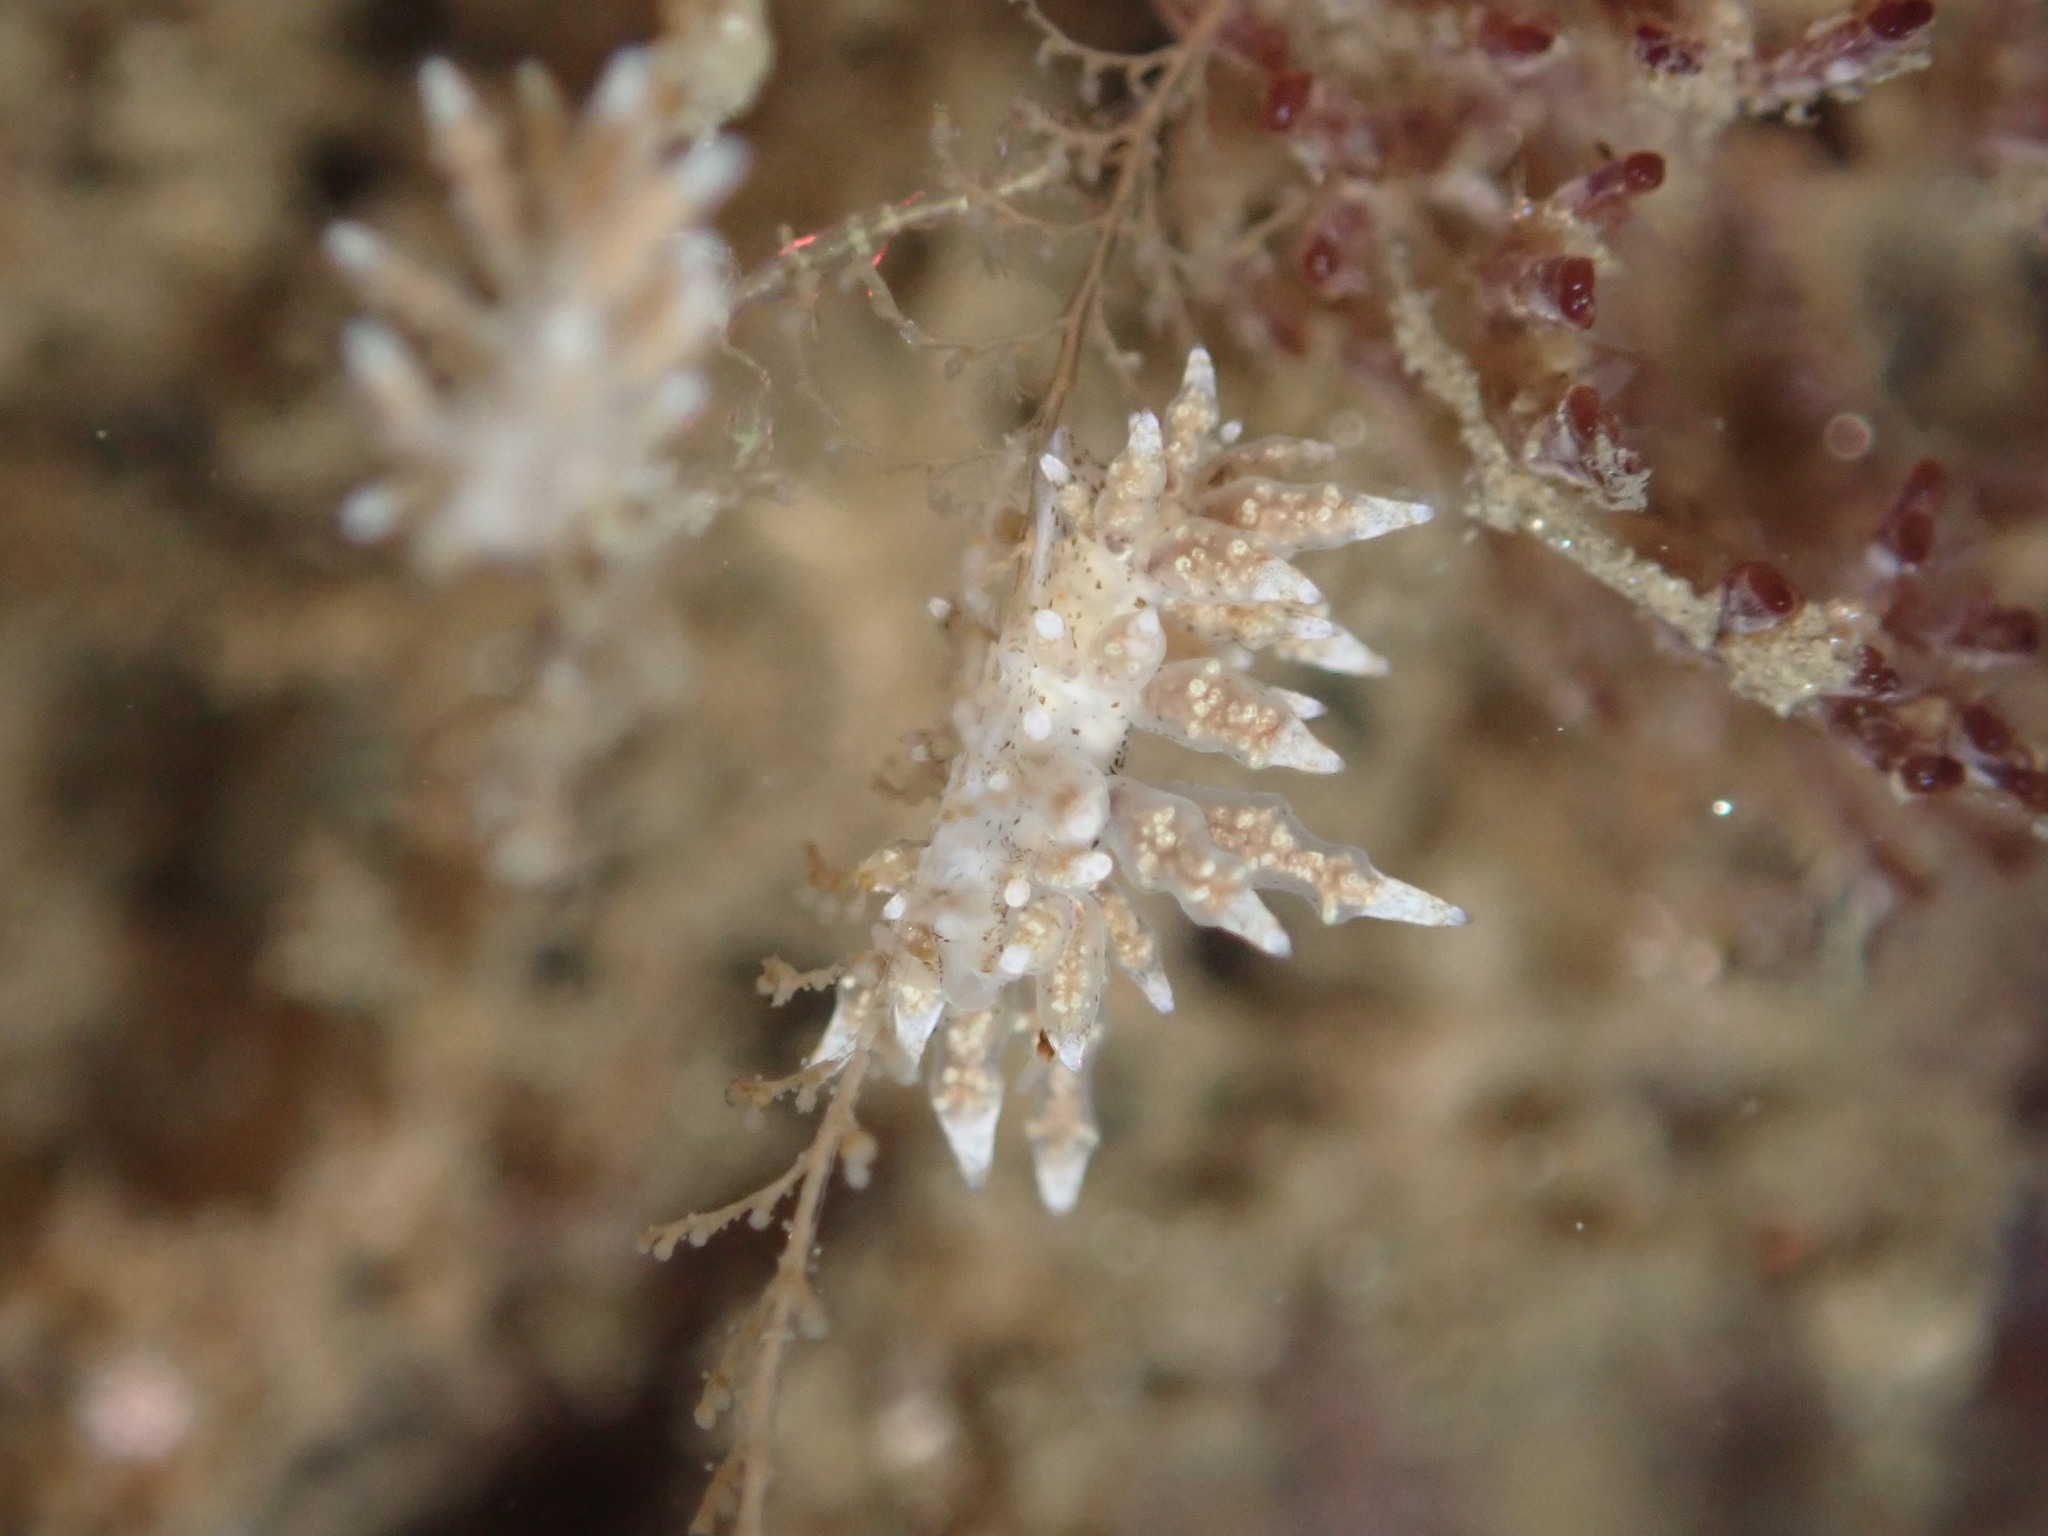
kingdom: Animalia
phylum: Mollusca
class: Gastropoda
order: Nudibranchia
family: Eubranchidae
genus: Eubranchus
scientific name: Eubranchus rustyus
